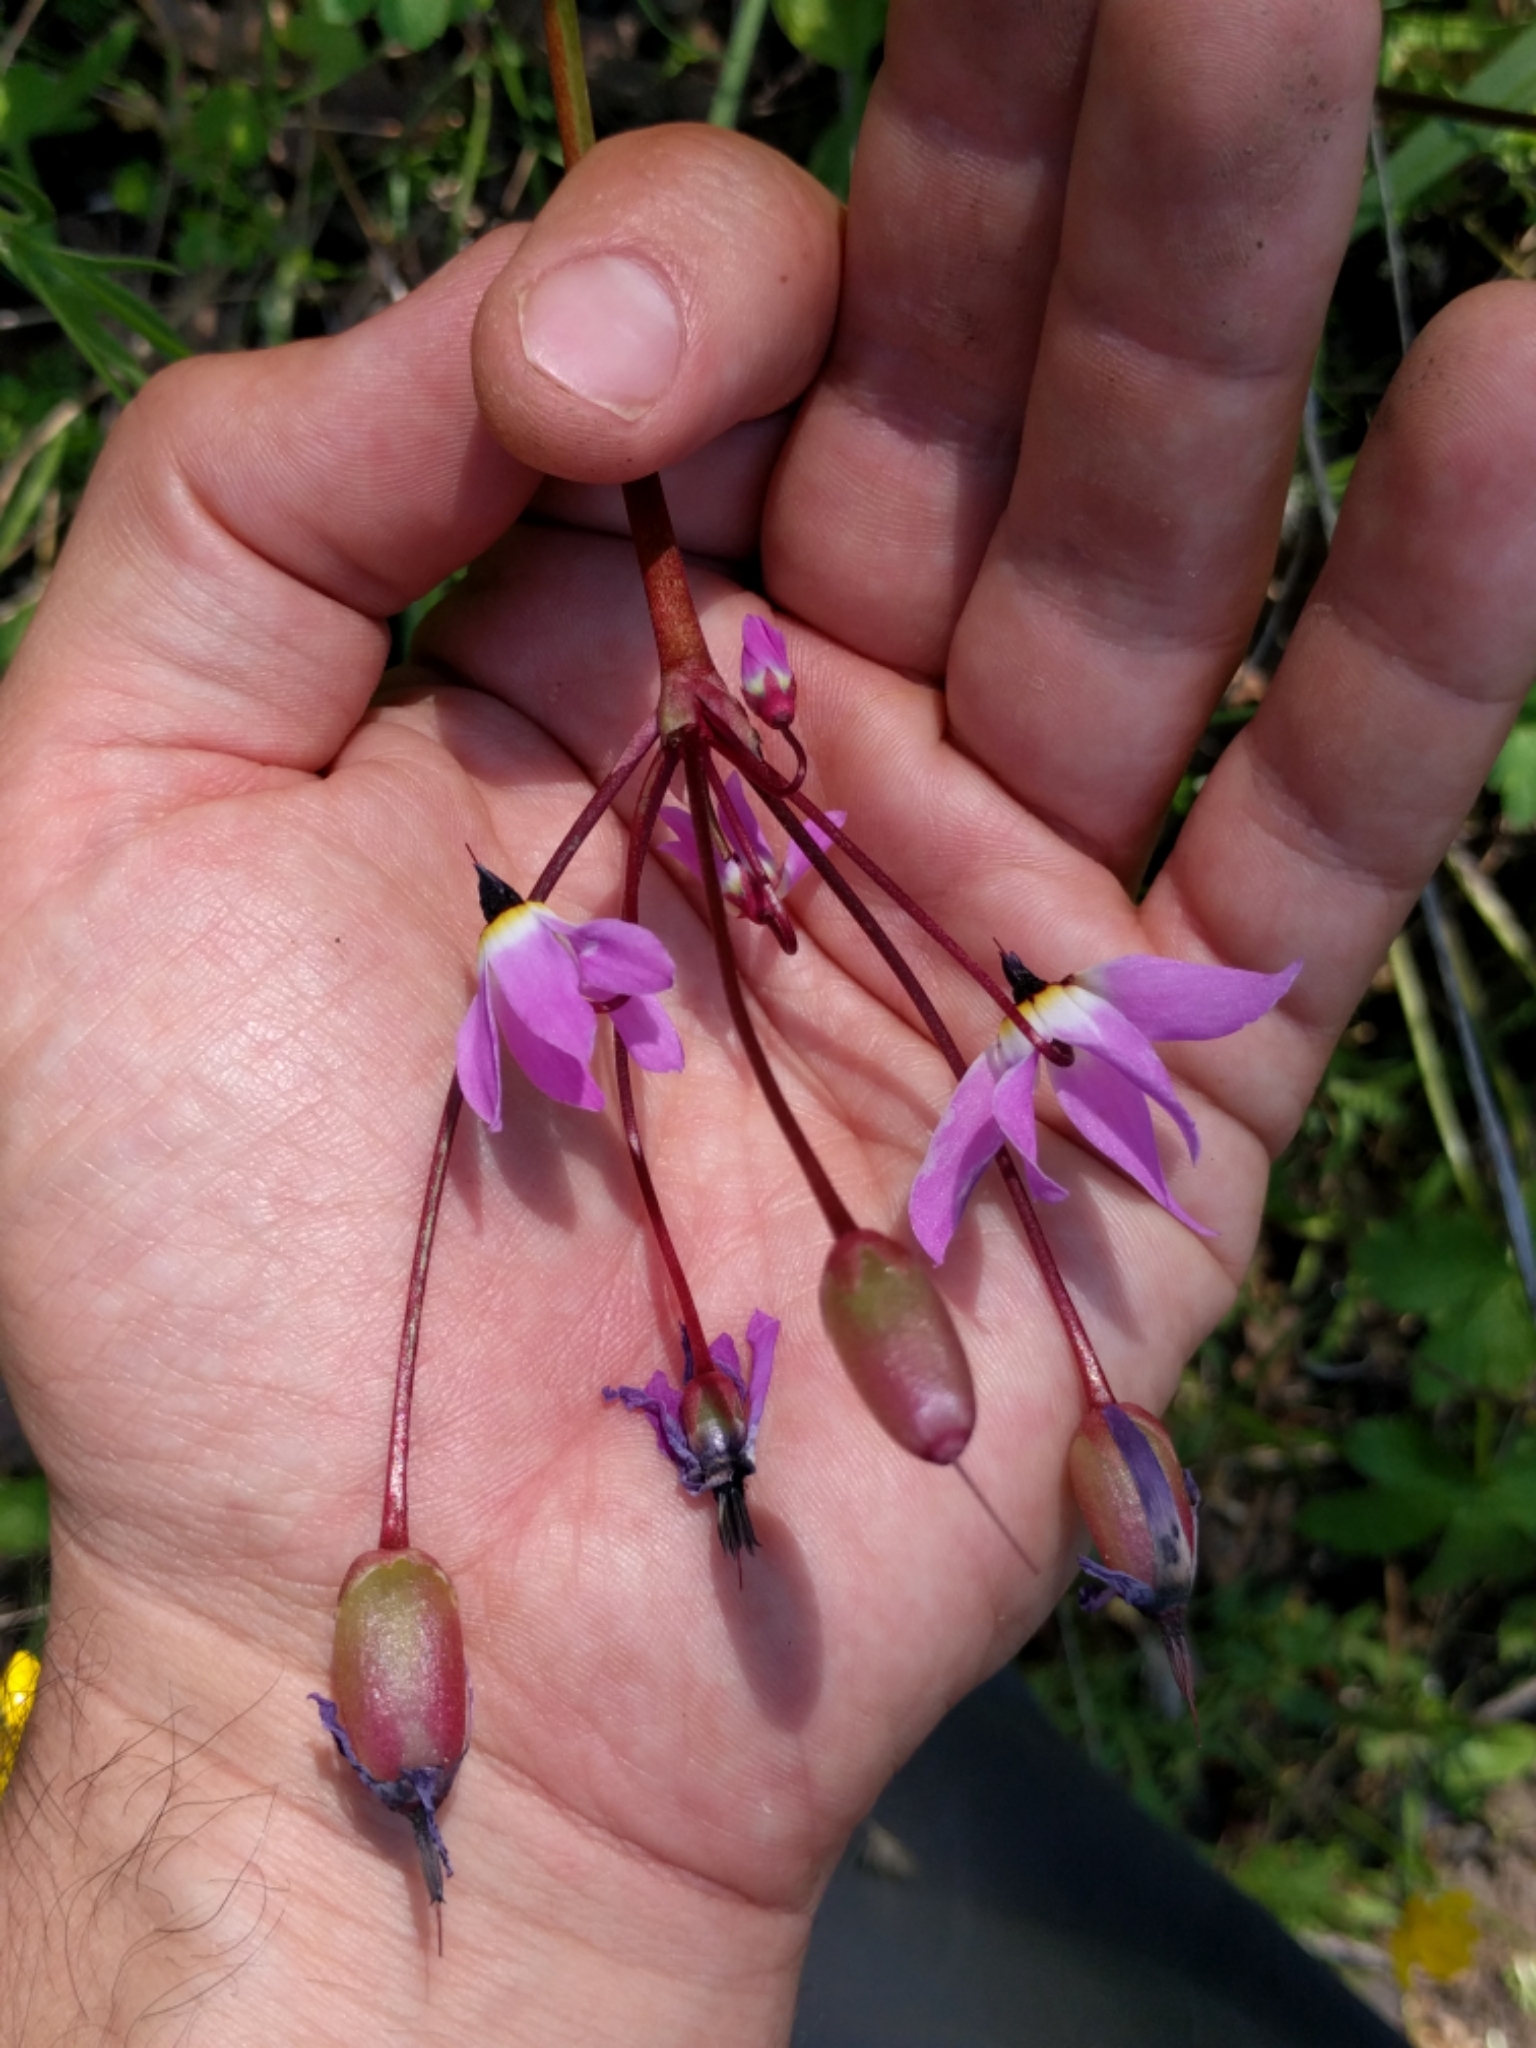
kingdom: Plantae
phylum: Tracheophyta
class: Magnoliopsida
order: Ericales
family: Primulaceae
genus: Dodecatheon
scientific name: Dodecatheon hendersonii
